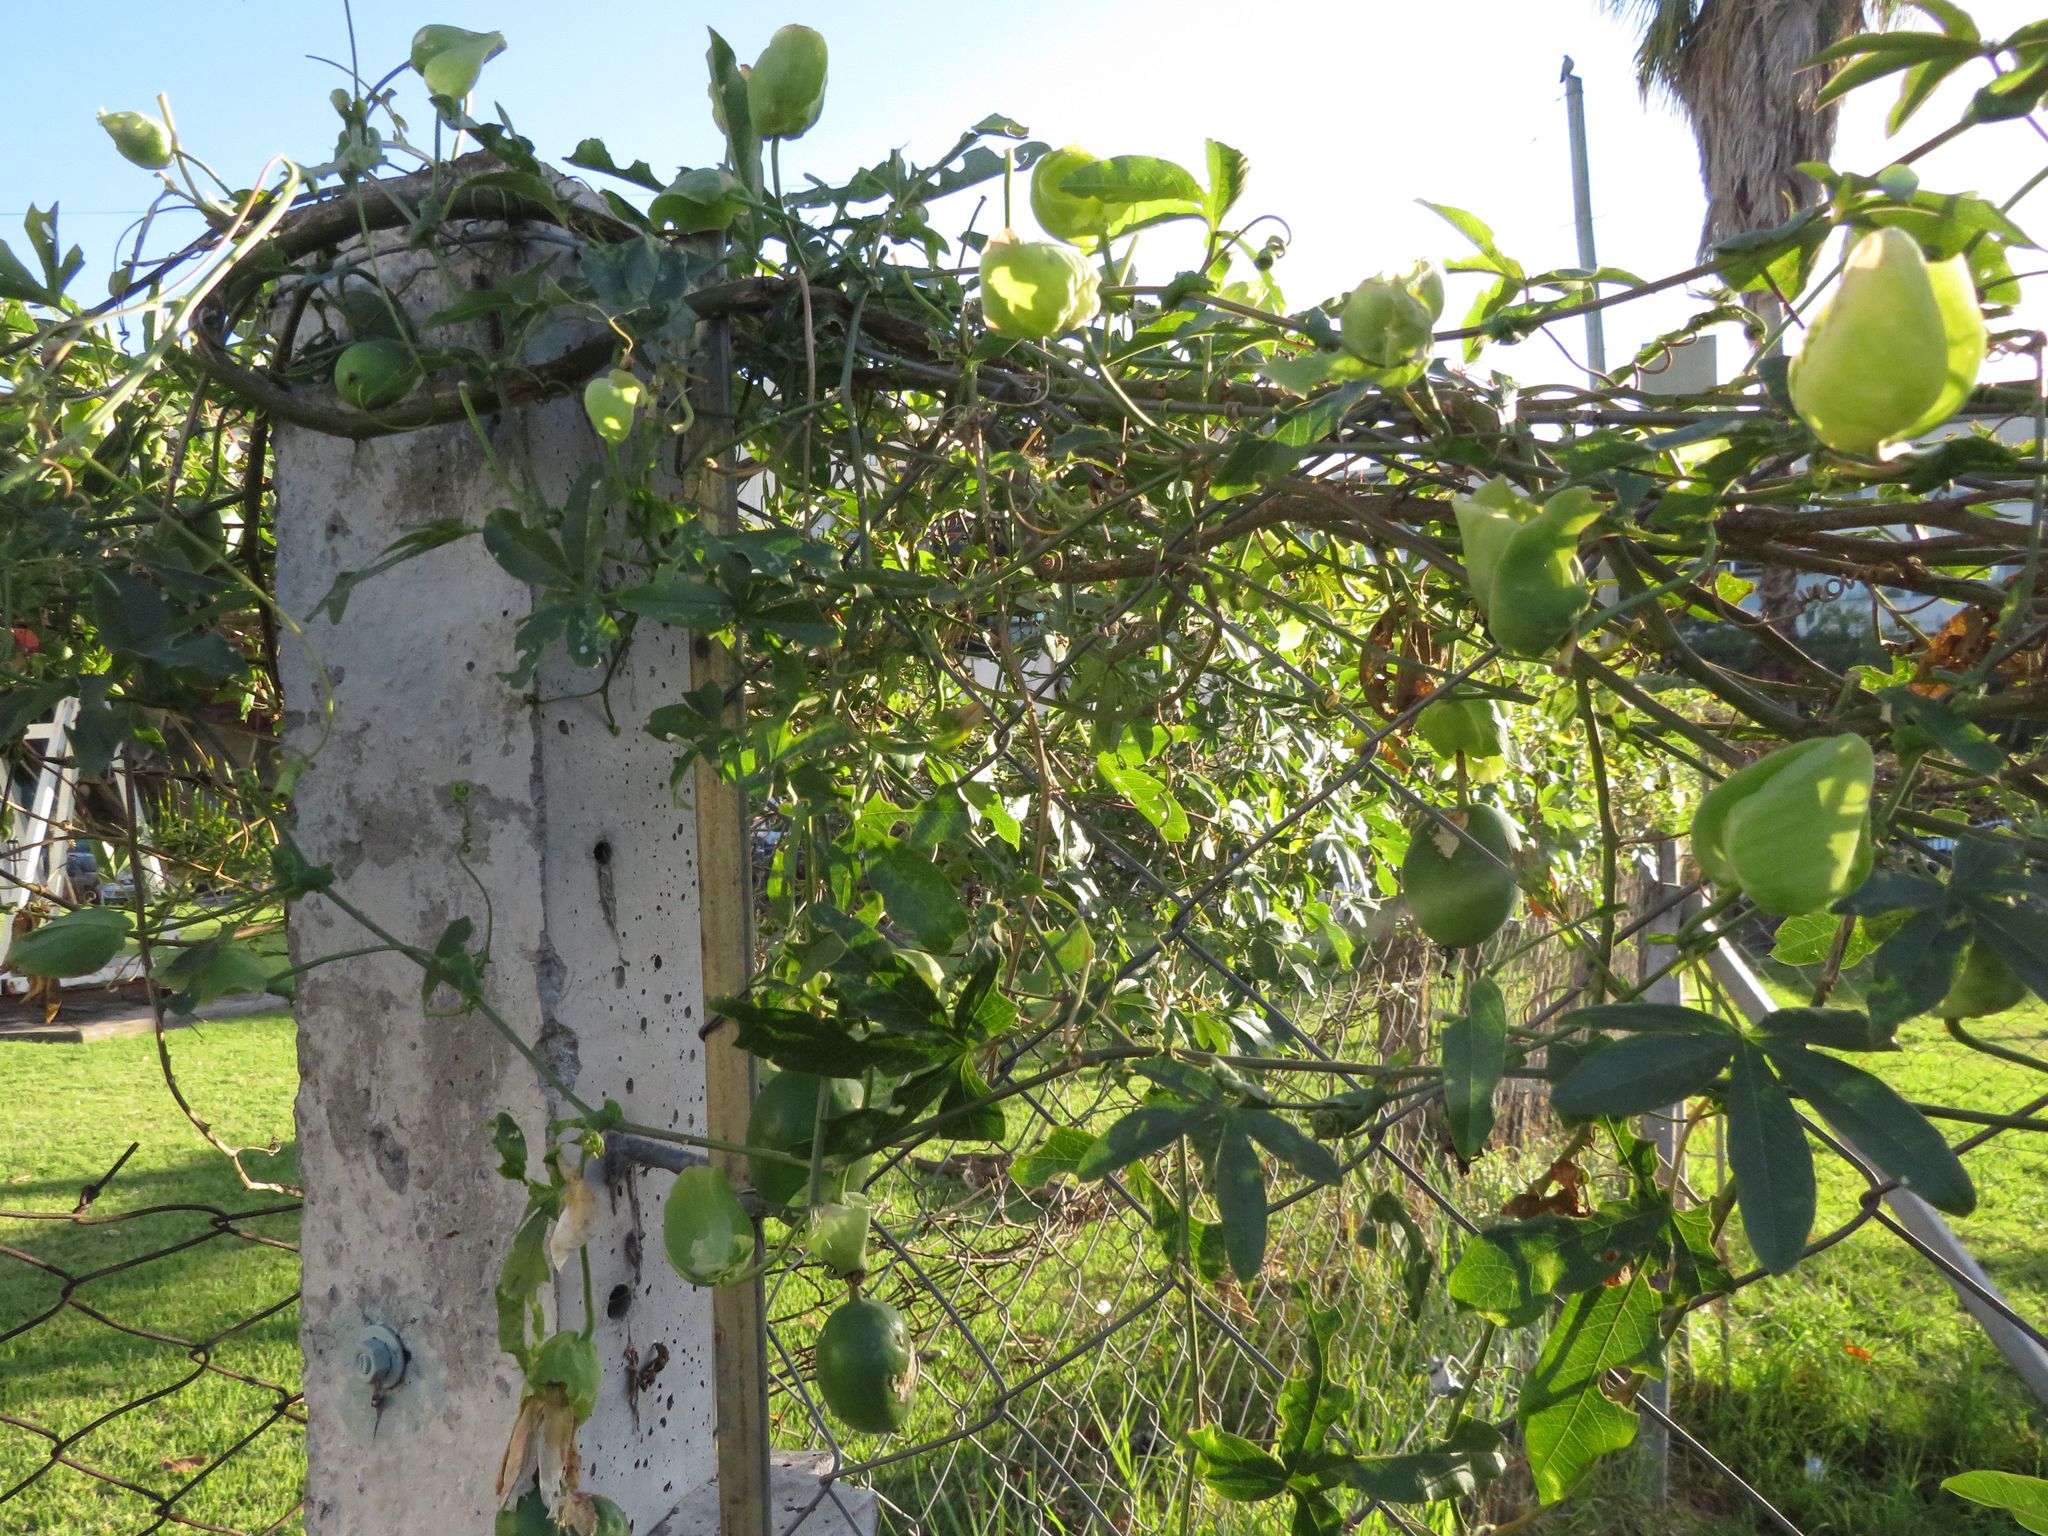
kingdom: Plantae
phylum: Tracheophyta
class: Magnoliopsida
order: Malpighiales
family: Passifloraceae
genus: Passiflora
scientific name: Passiflora caerulea
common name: Blue passionflower
